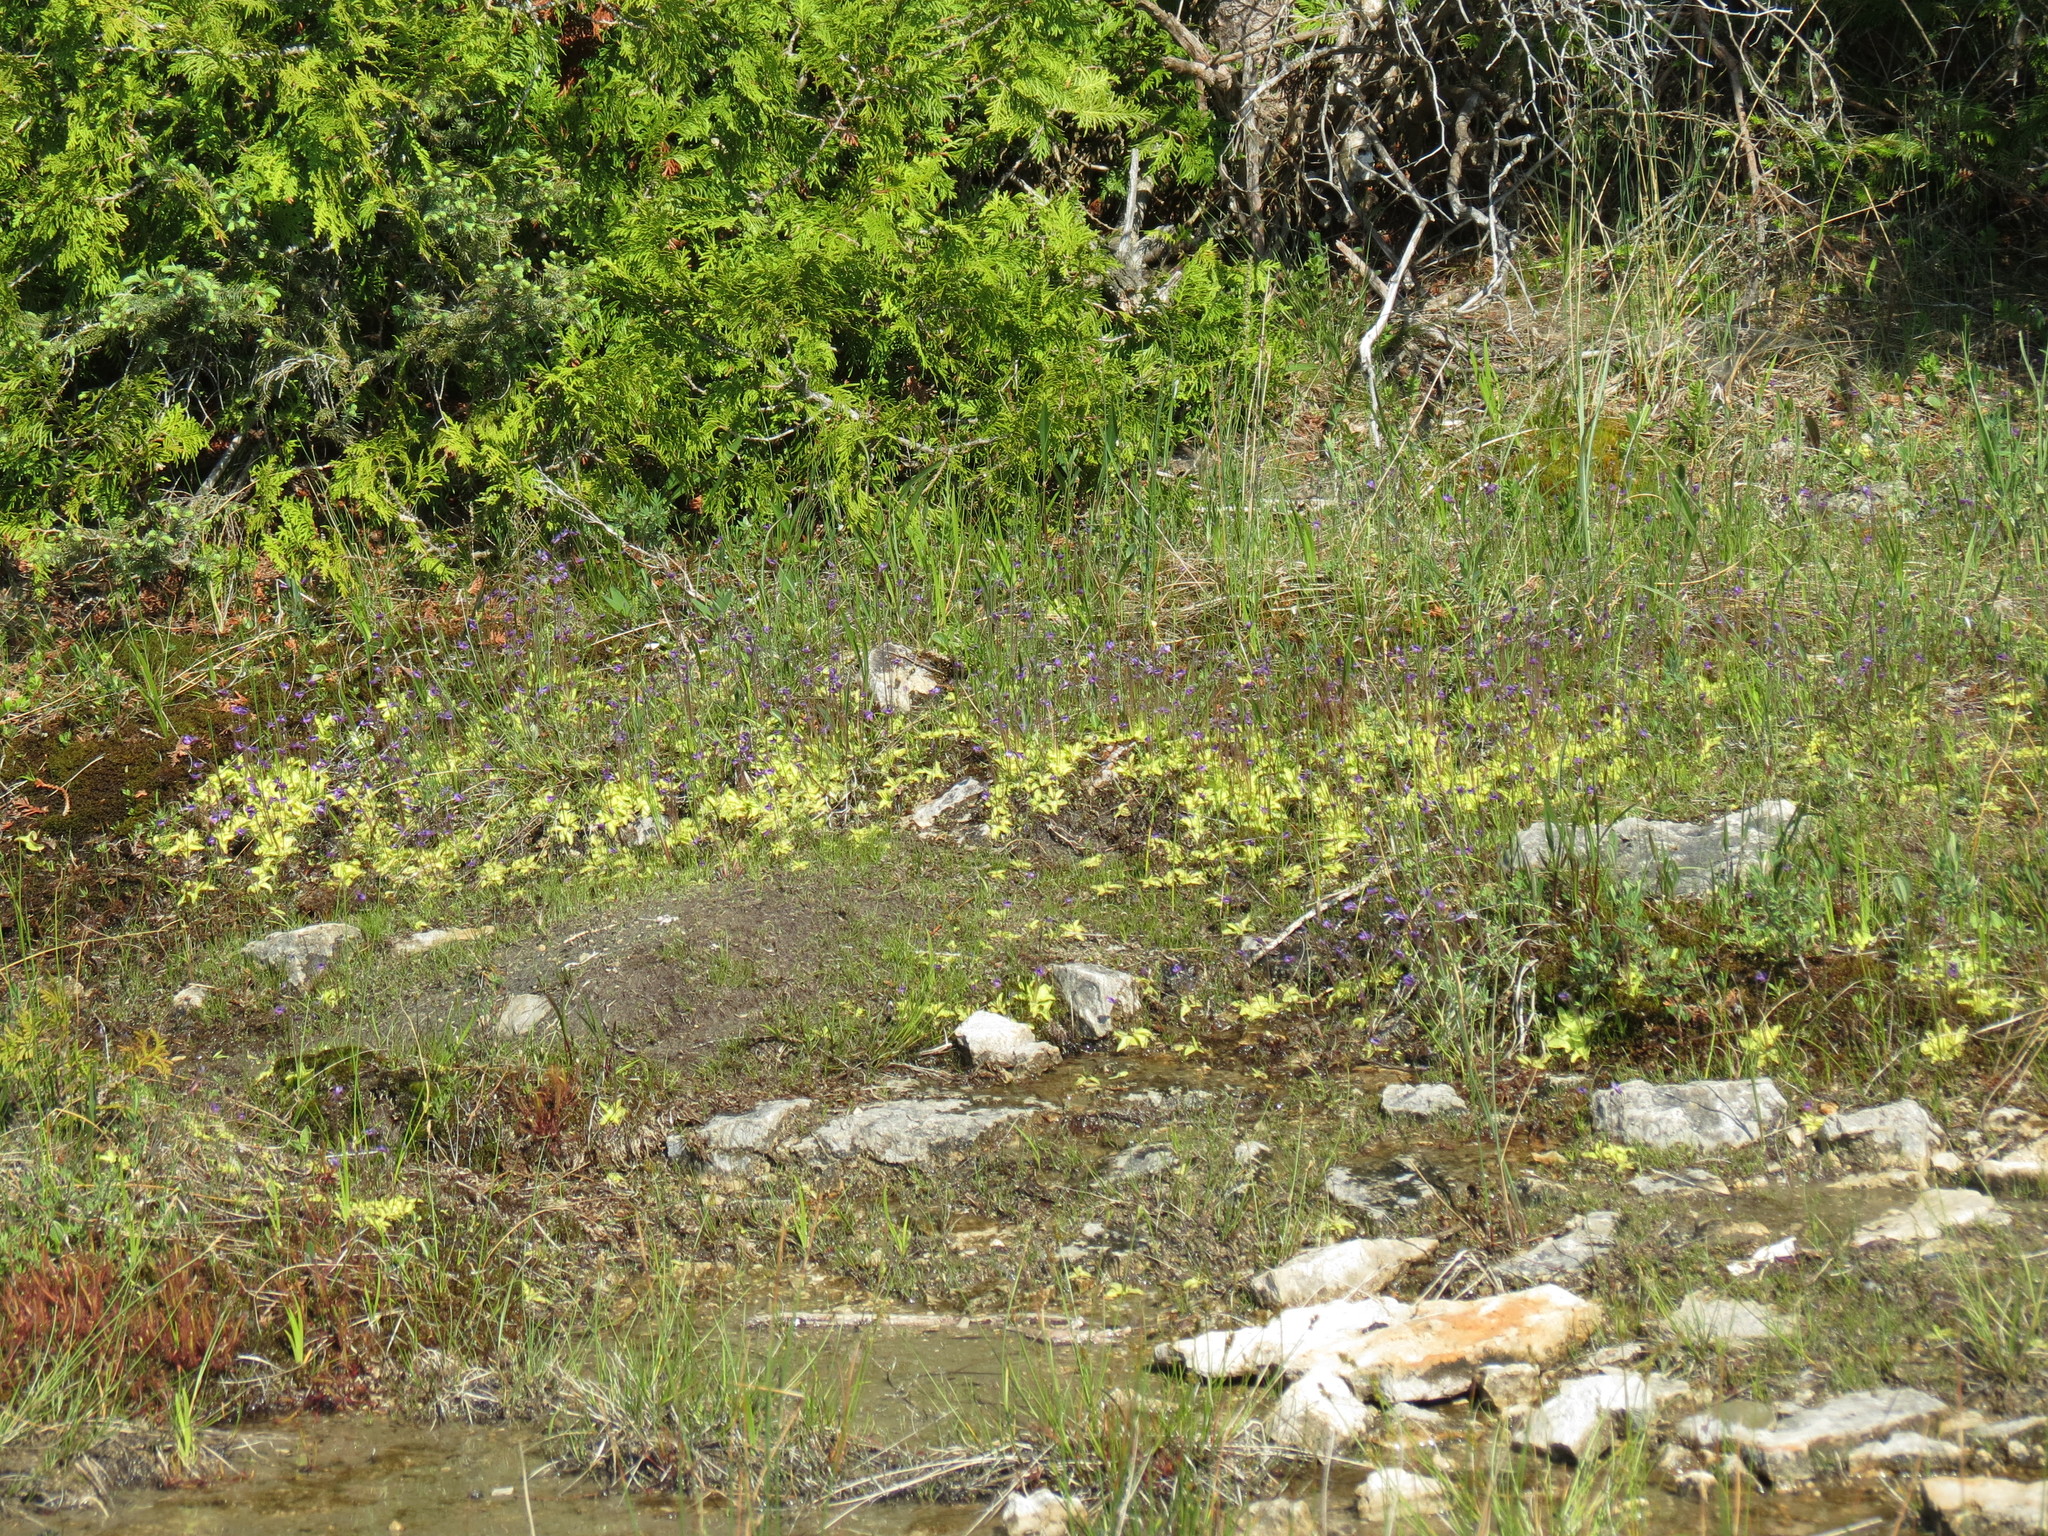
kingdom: Plantae
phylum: Tracheophyta
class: Magnoliopsida
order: Lamiales
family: Lentibulariaceae
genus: Pinguicula
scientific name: Pinguicula vulgaris
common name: Common butterwort
